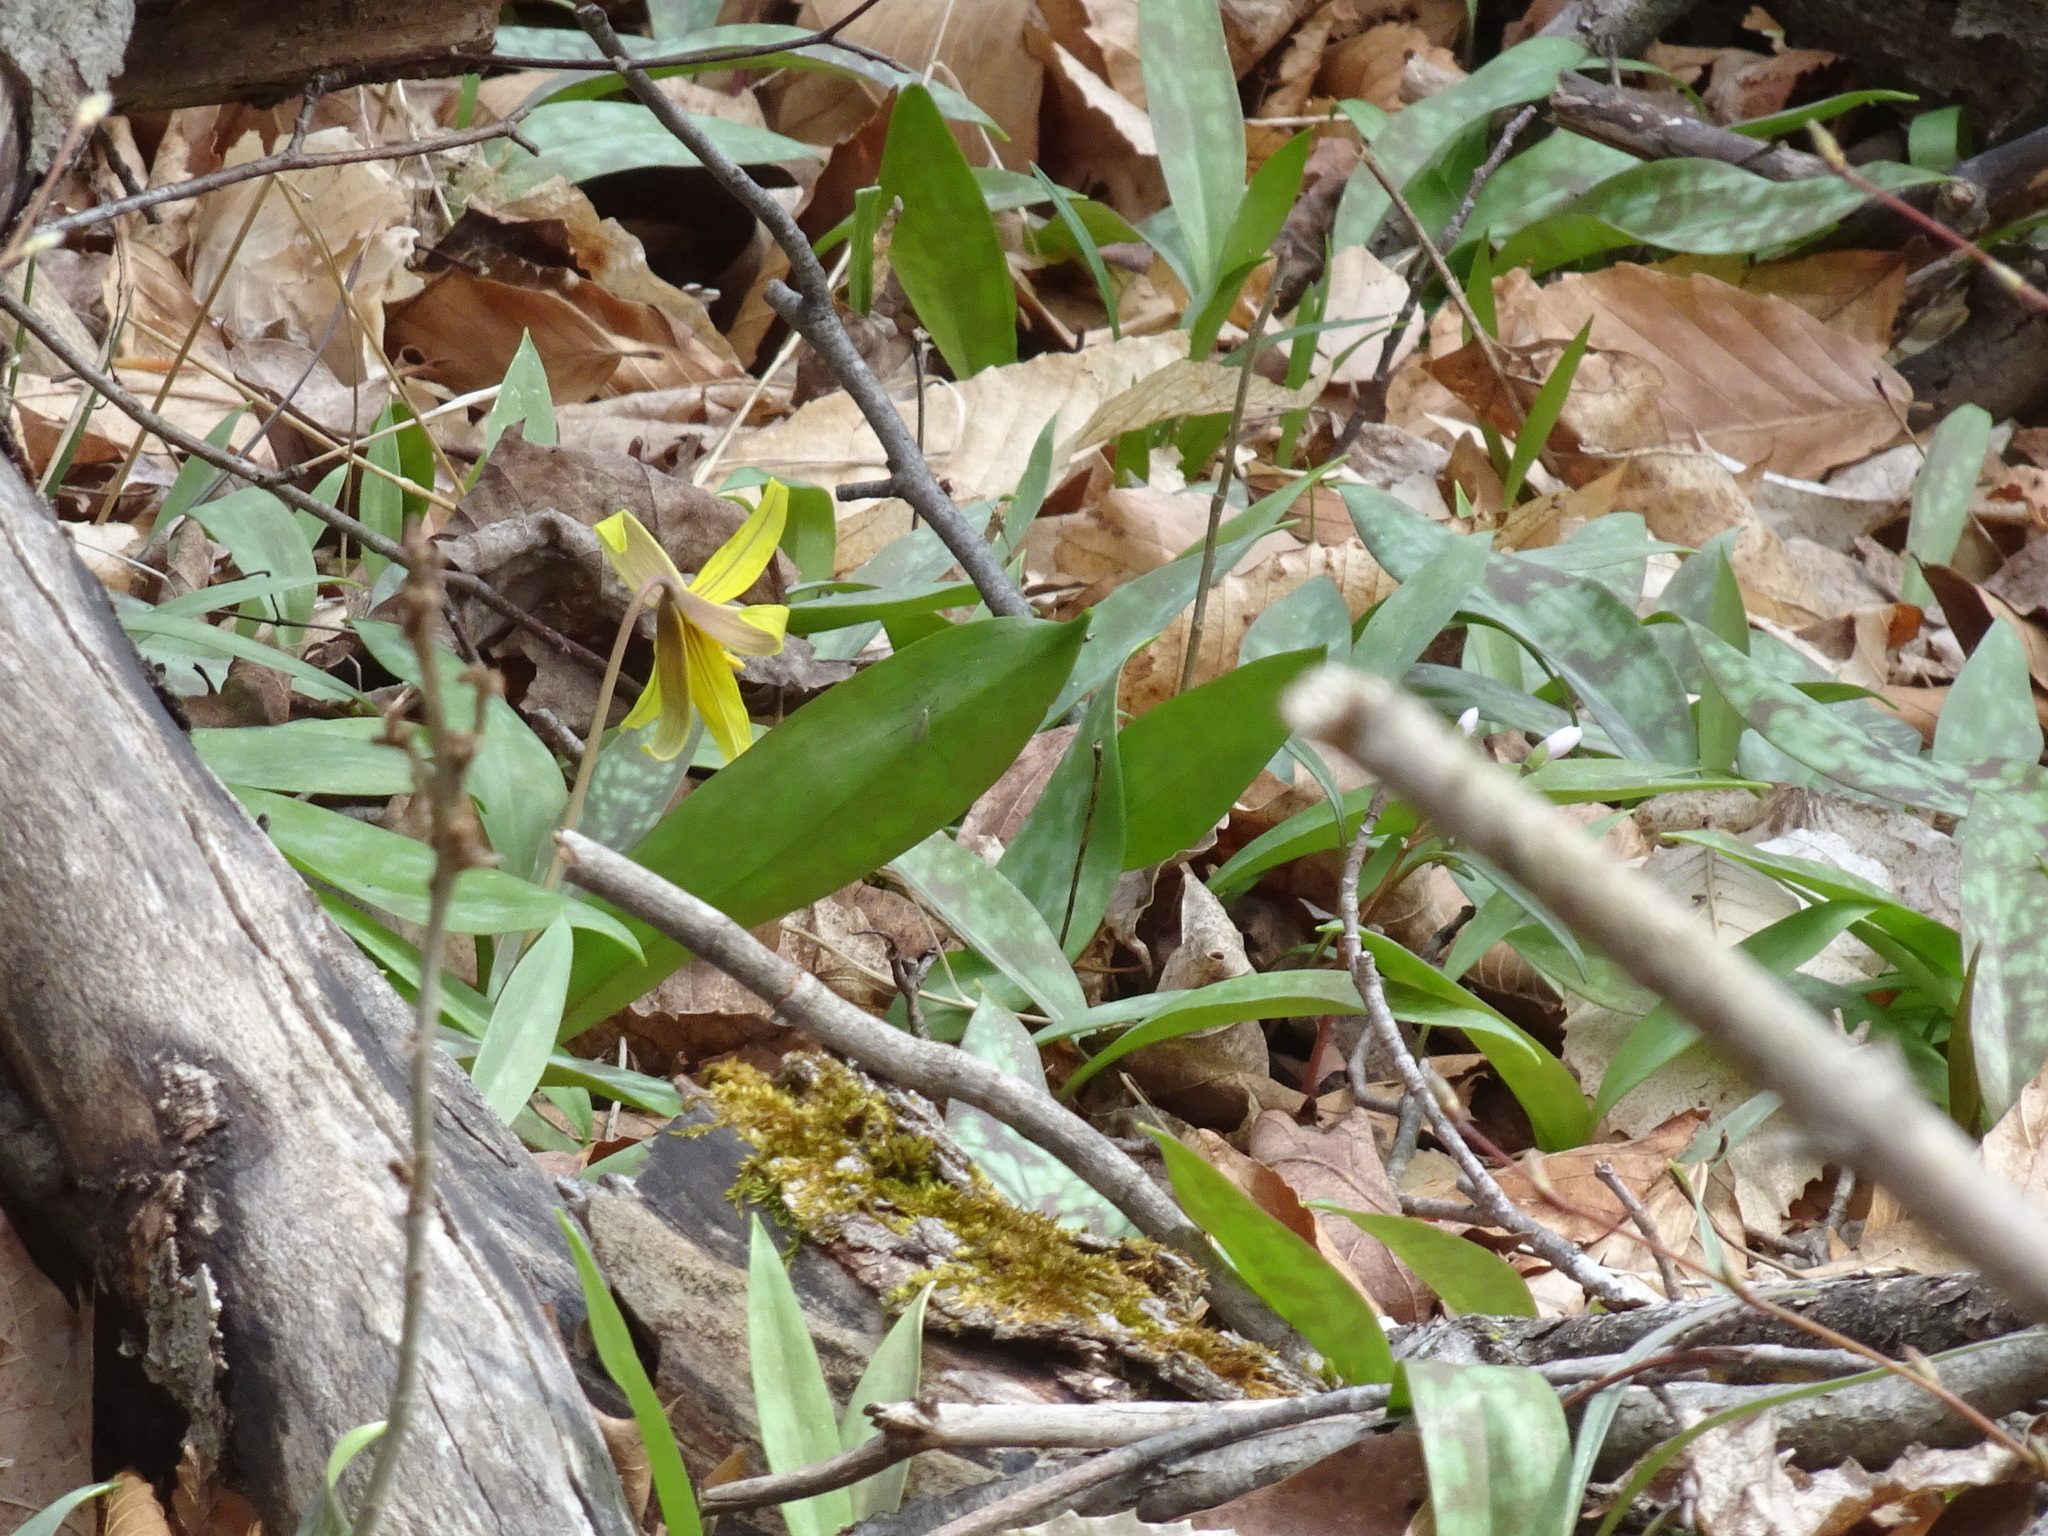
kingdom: Plantae
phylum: Tracheophyta
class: Liliopsida
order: Liliales
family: Liliaceae
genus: Erythronium
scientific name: Erythronium americanum
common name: Yellow adder's-tongue
